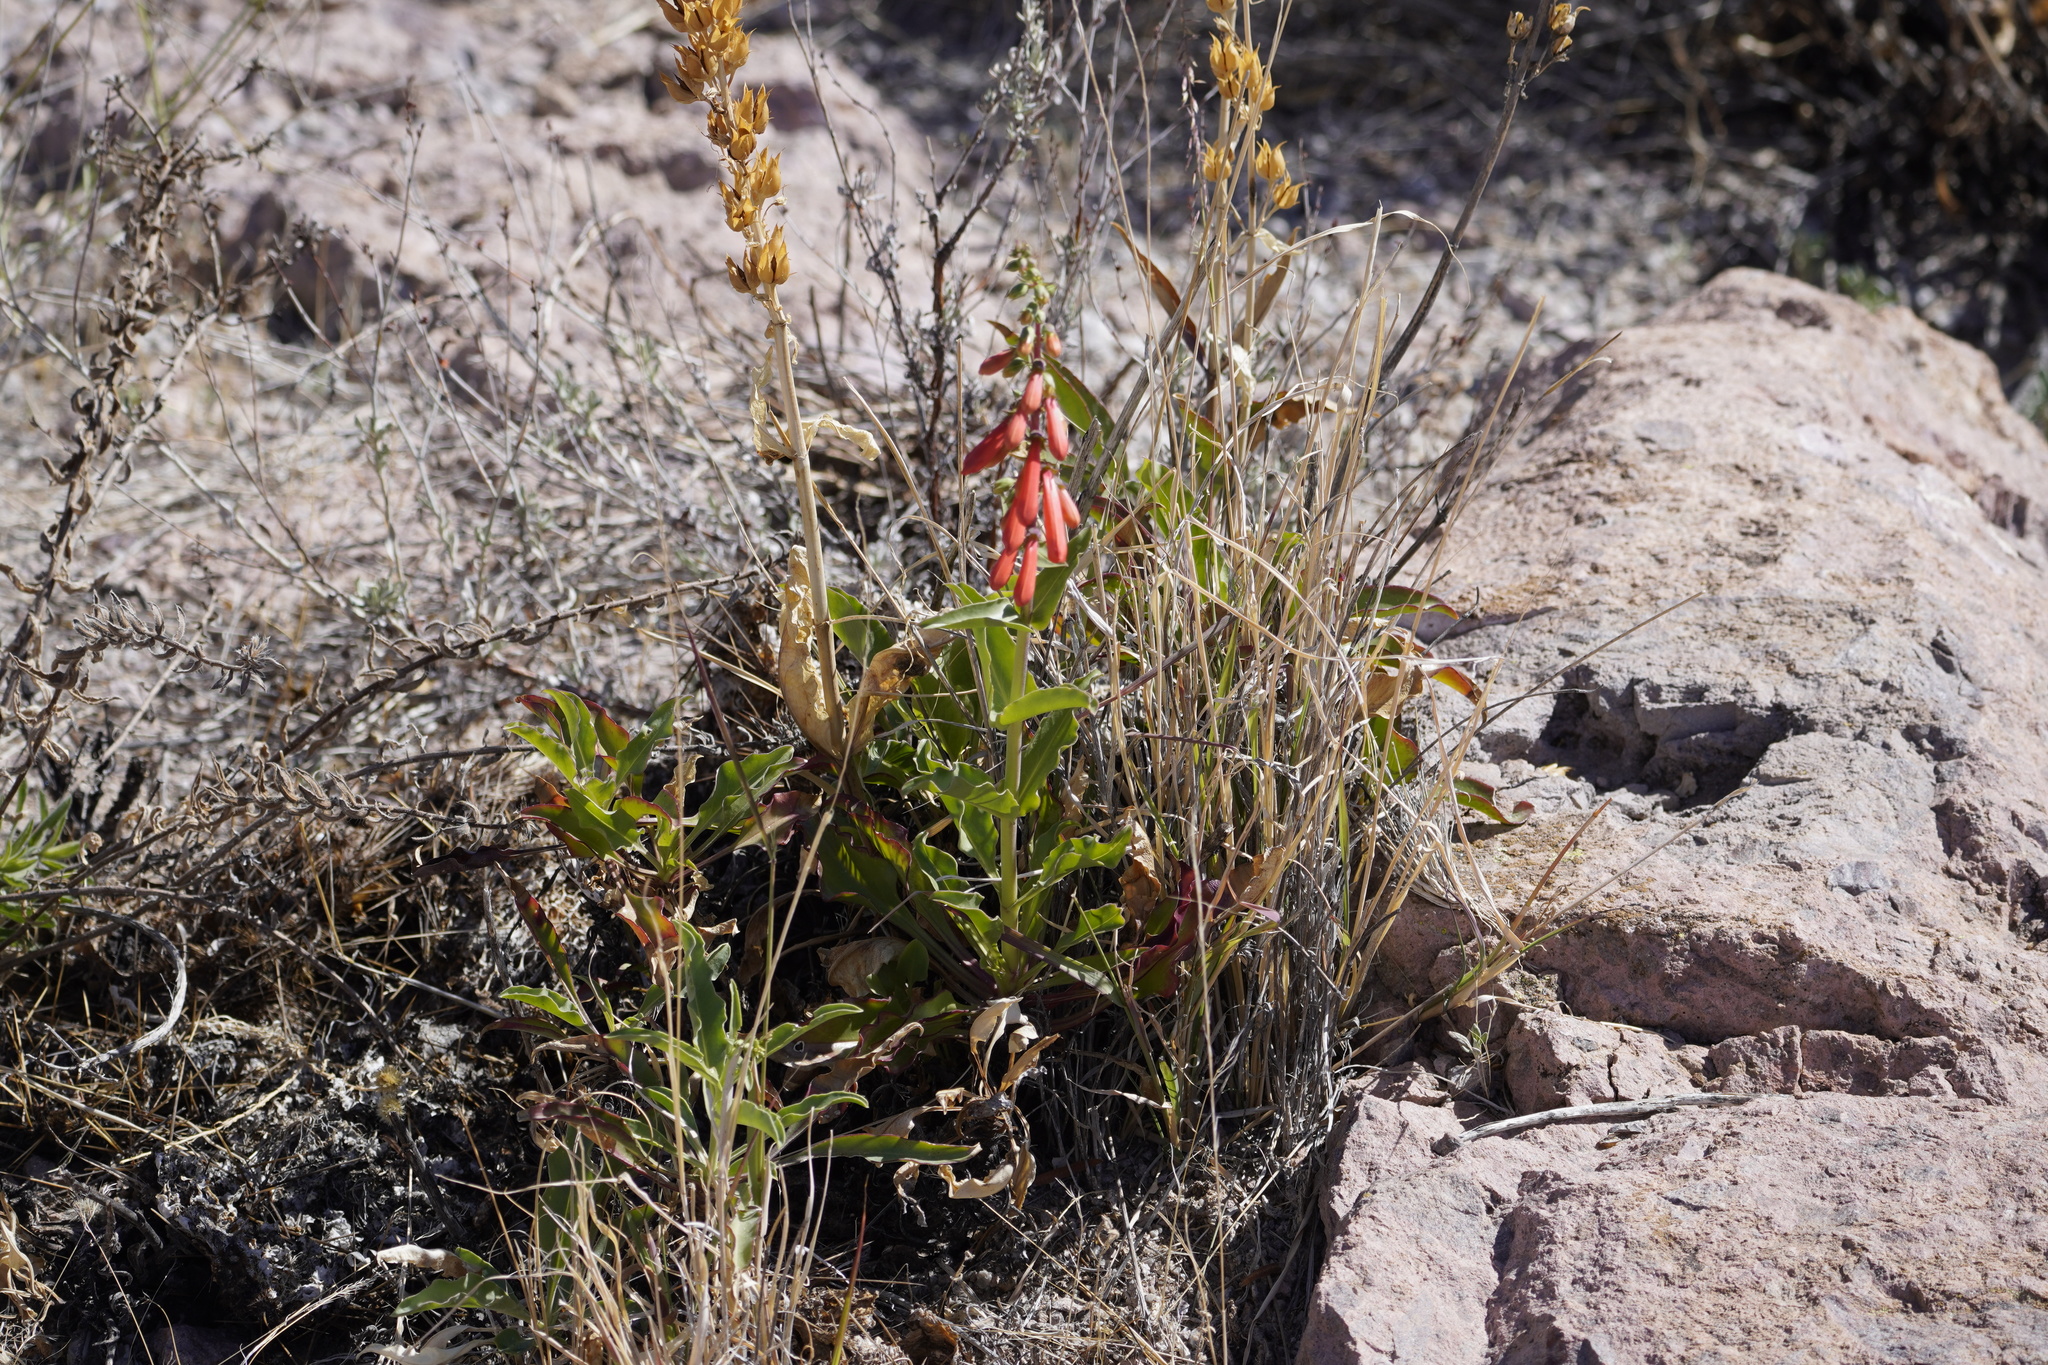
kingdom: Plantae
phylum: Tracheophyta
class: Magnoliopsida
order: Lamiales
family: Plantaginaceae
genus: Penstemon
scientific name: Penstemon eatonii
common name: Eaton's penstemon
